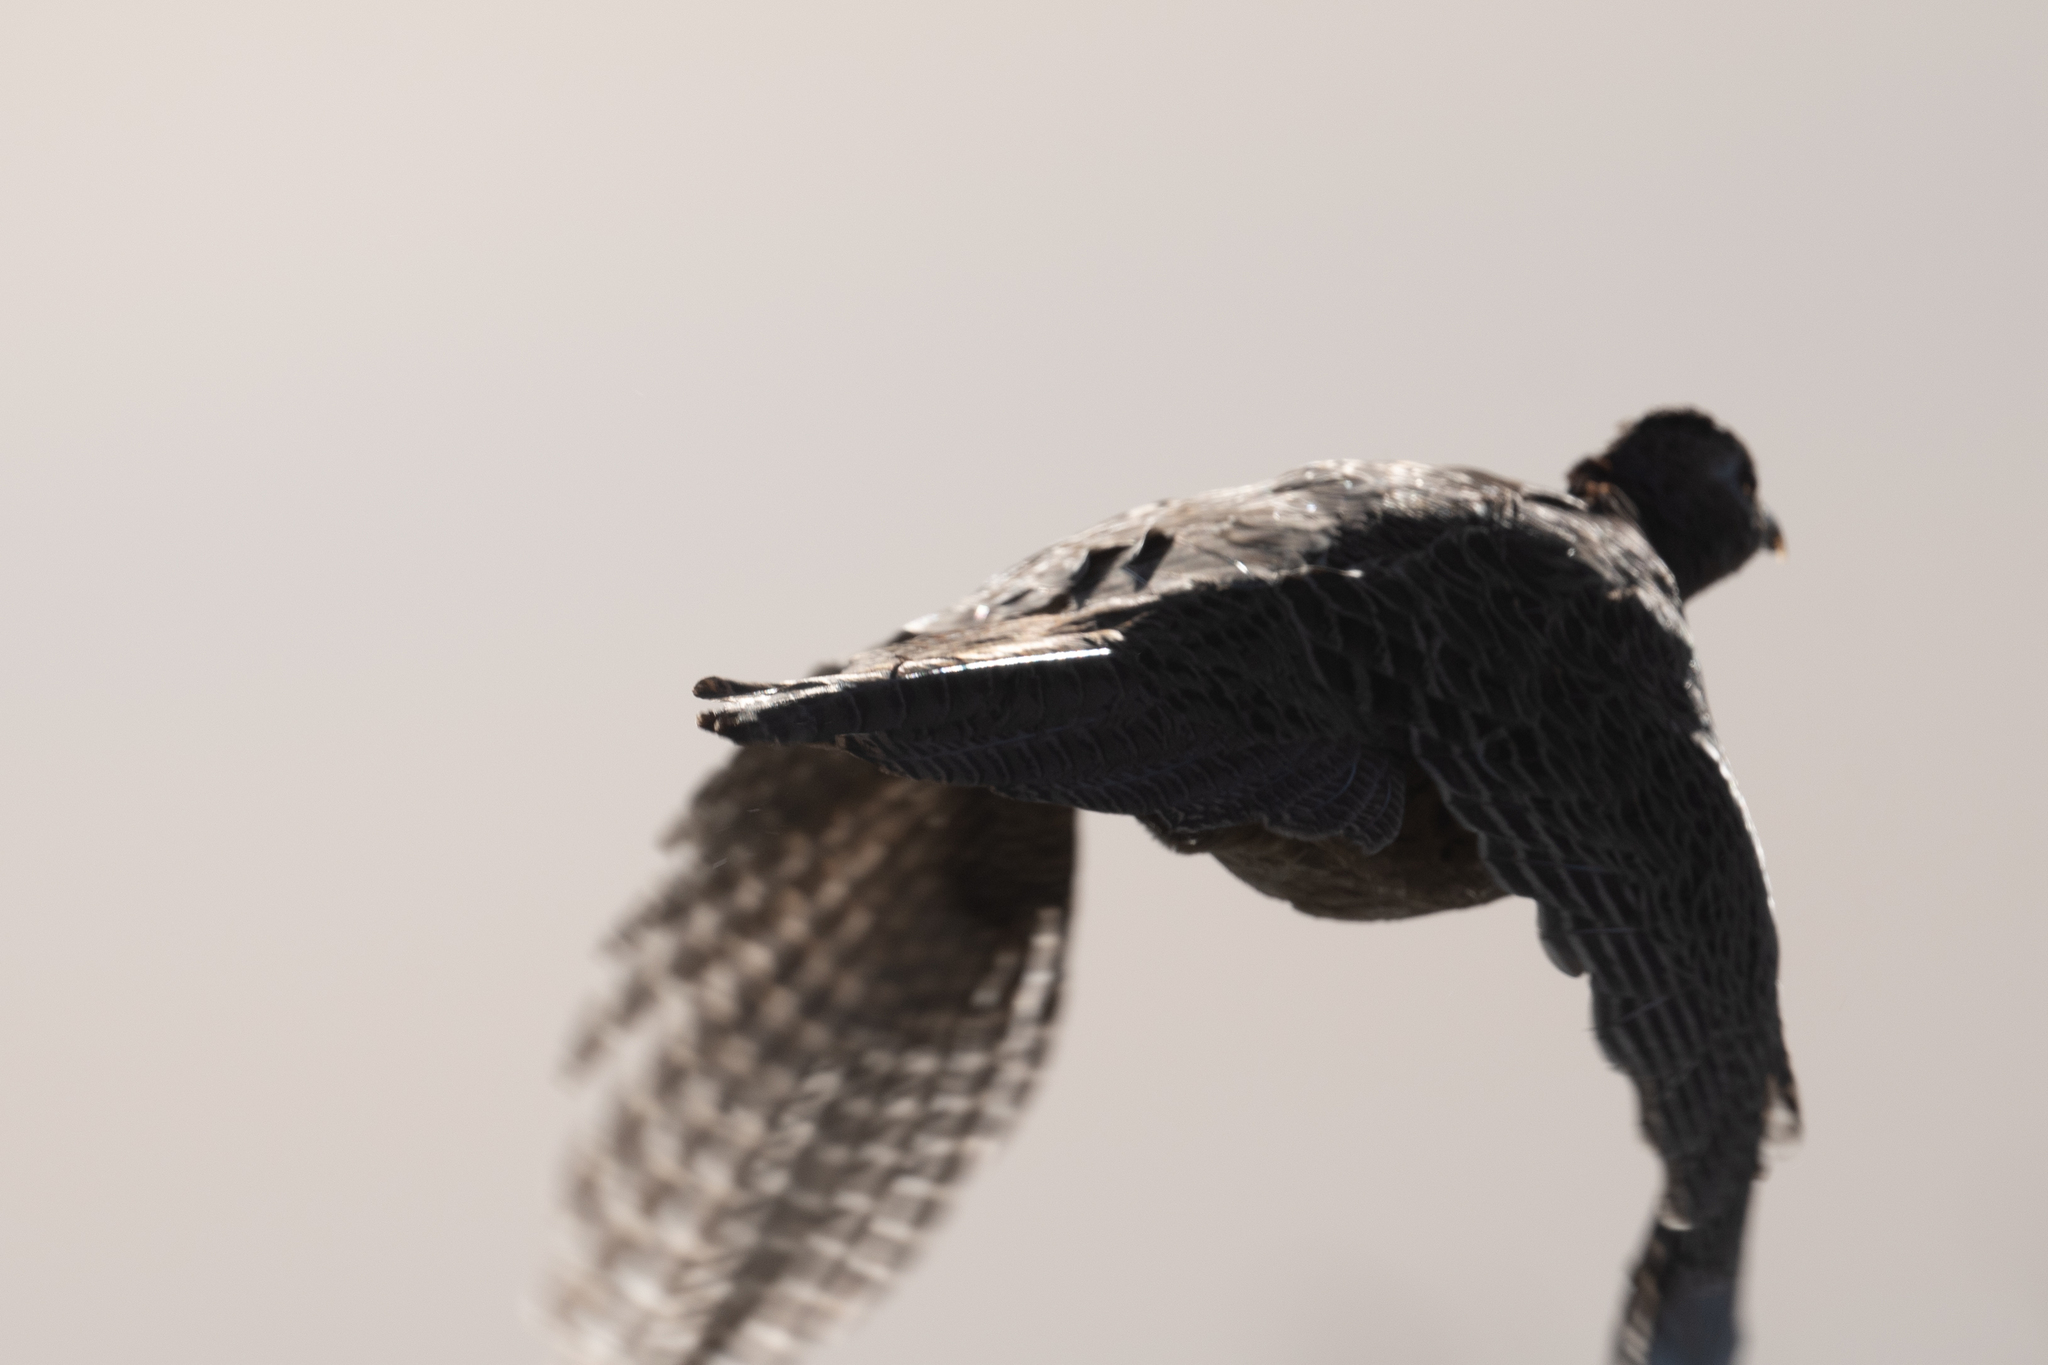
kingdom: Animalia
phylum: Chordata
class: Aves
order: Galliformes
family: Phasianidae
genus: Phasianus
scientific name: Phasianus colchicus
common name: Common pheasant
